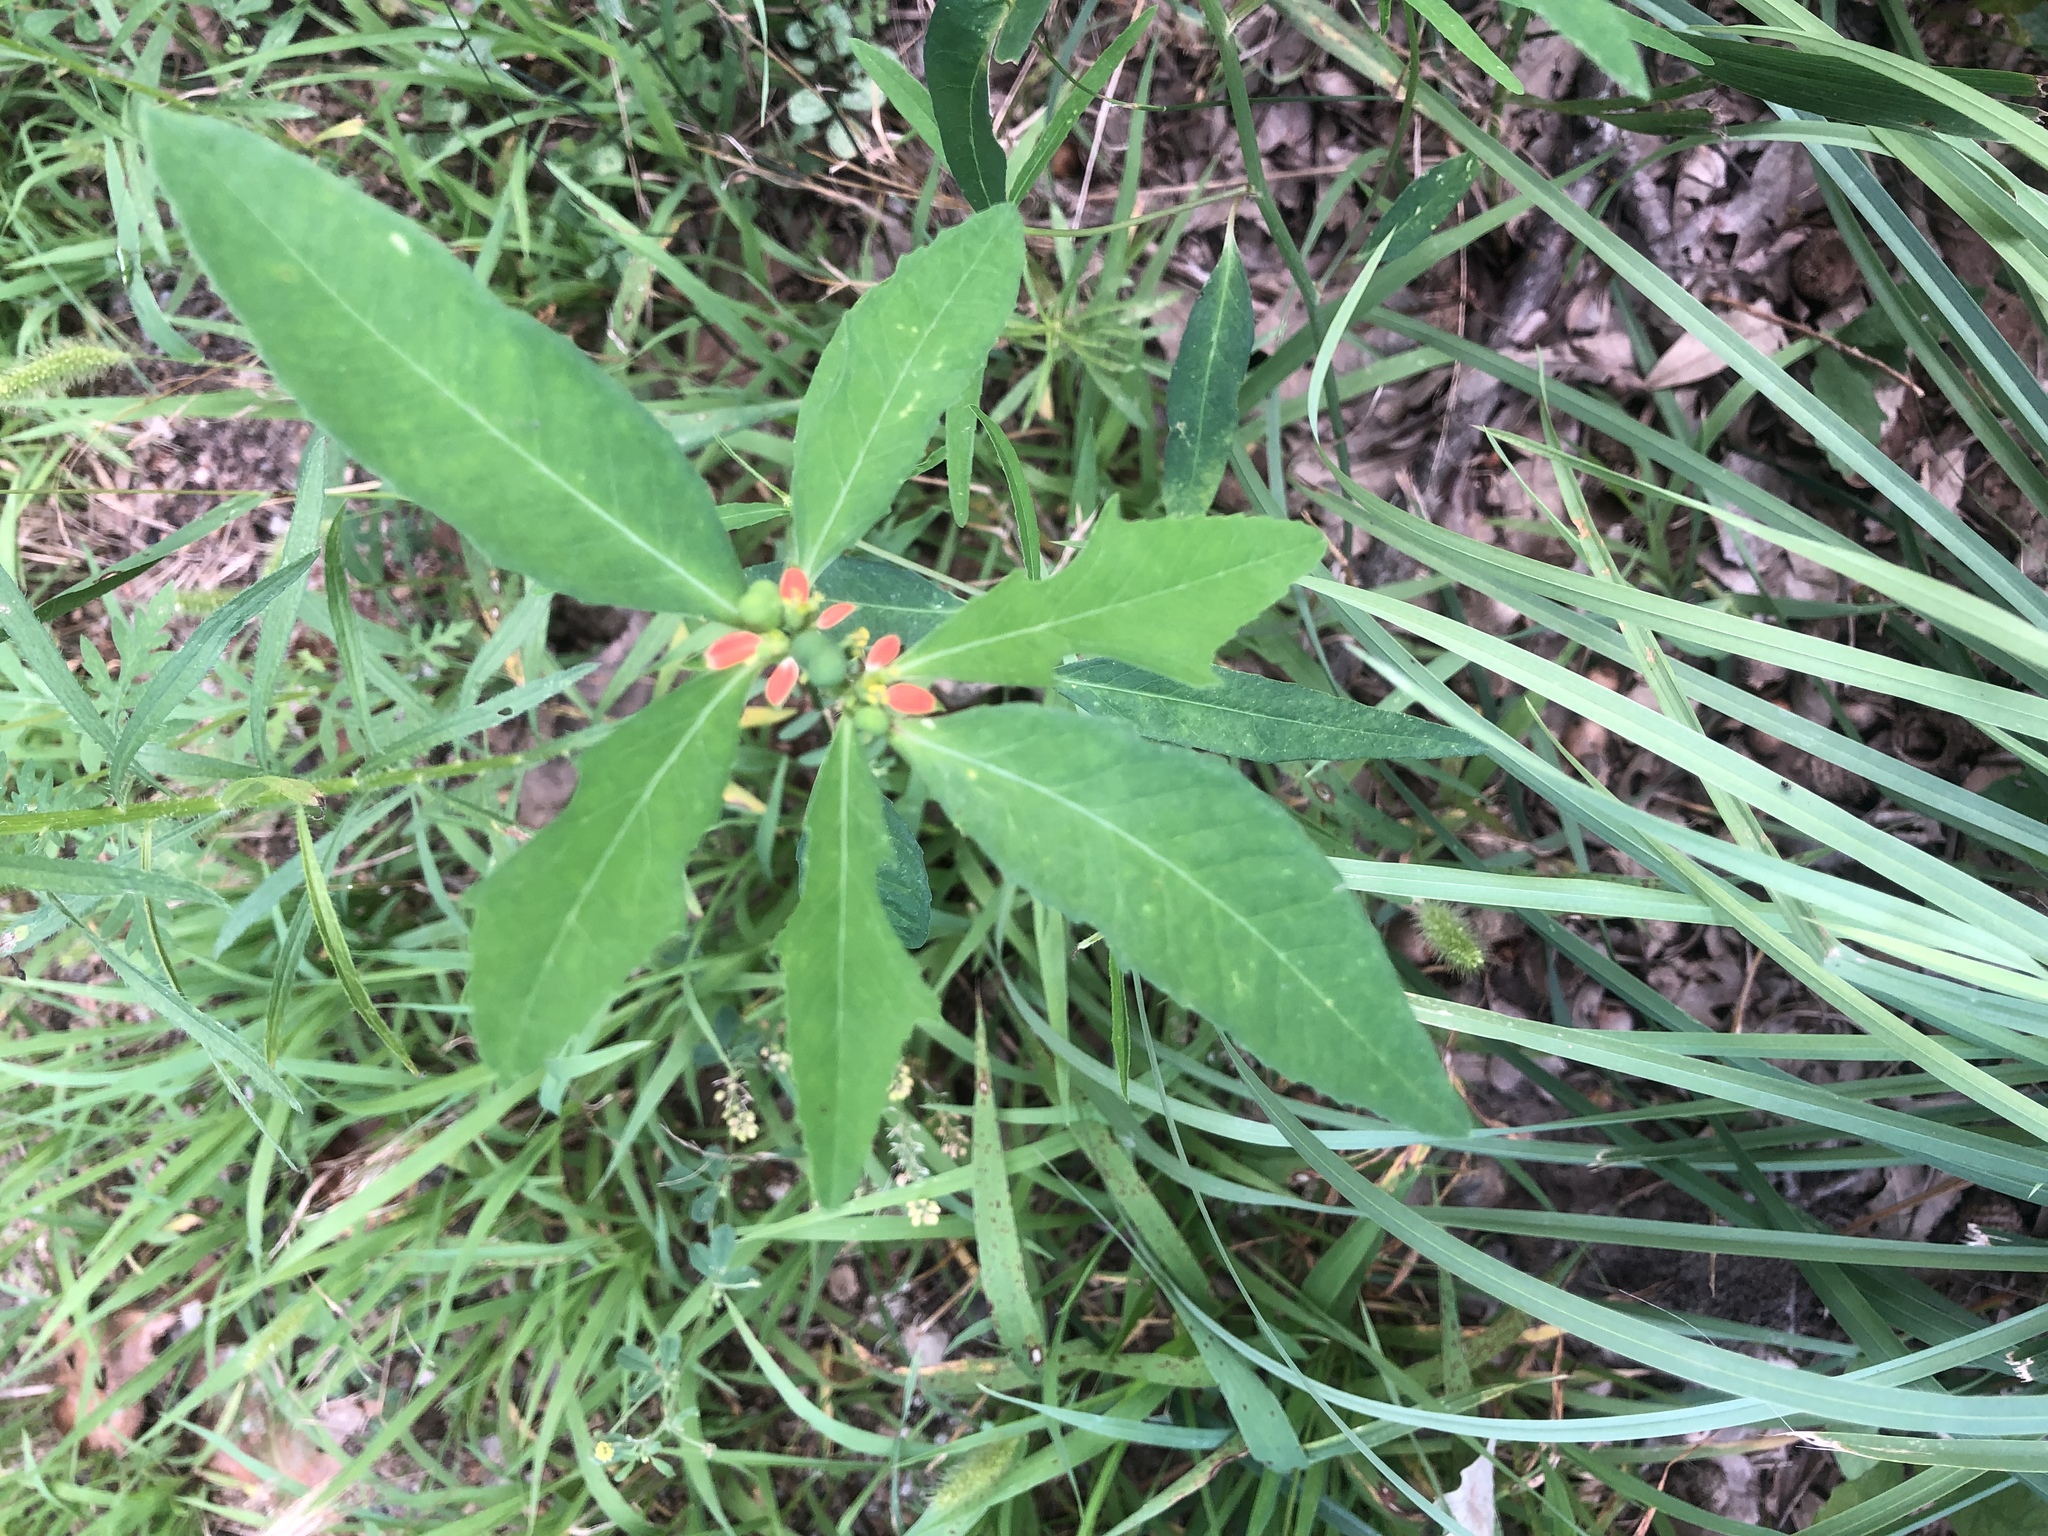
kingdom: Plantae
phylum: Tracheophyta
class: Magnoliopsida
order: Malpighiales
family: Euphorbiaceae
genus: Euphorbia
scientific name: Euphorbia heterophylla
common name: Mexican fireplant
